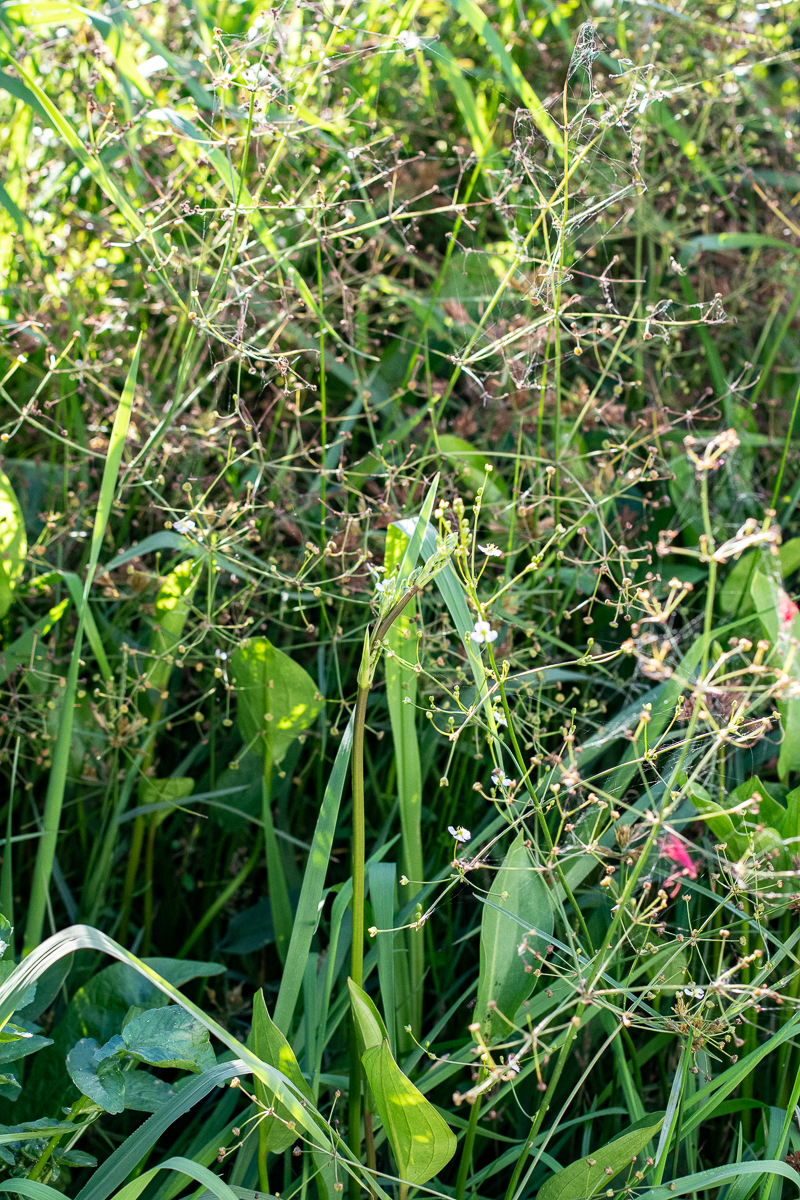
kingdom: Plantae
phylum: Tracheophyta
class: Liliopsida
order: Alismatales
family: Alismataceae
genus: Alisma
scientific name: Alisma plantago-aquatica
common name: Water-plantain
